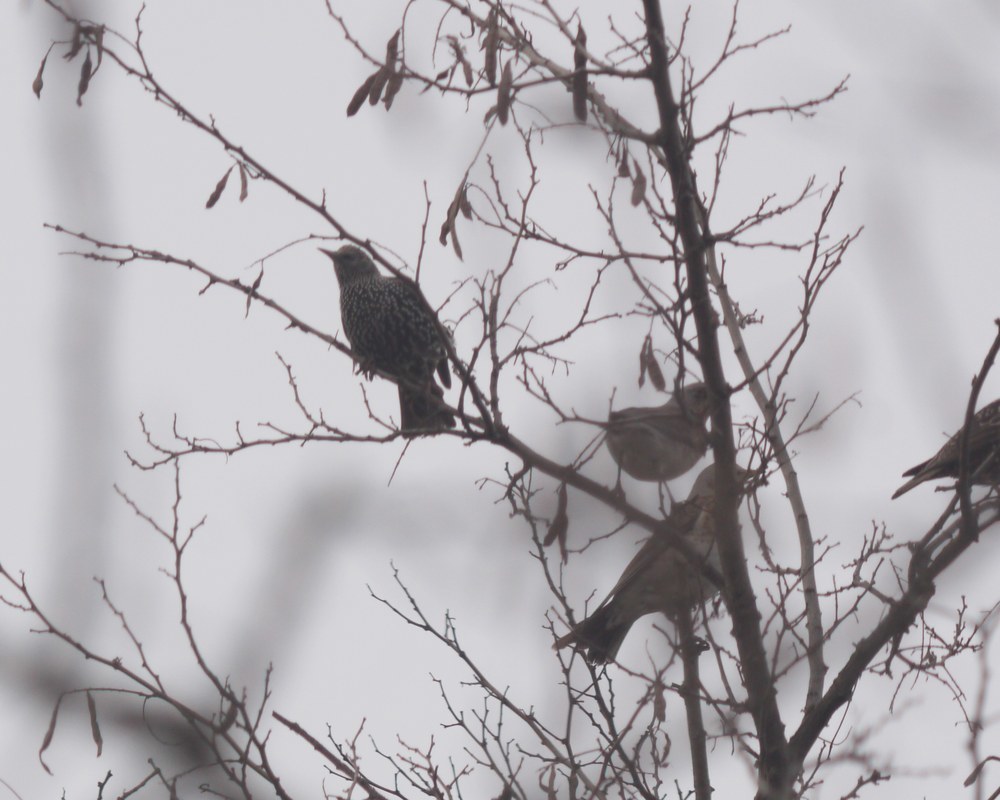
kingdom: Animalia
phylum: Chordata
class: Aves
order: Passeriformes
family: Sturnidae
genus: Sturnus
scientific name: Sturnus vulgaris
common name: Common starling
